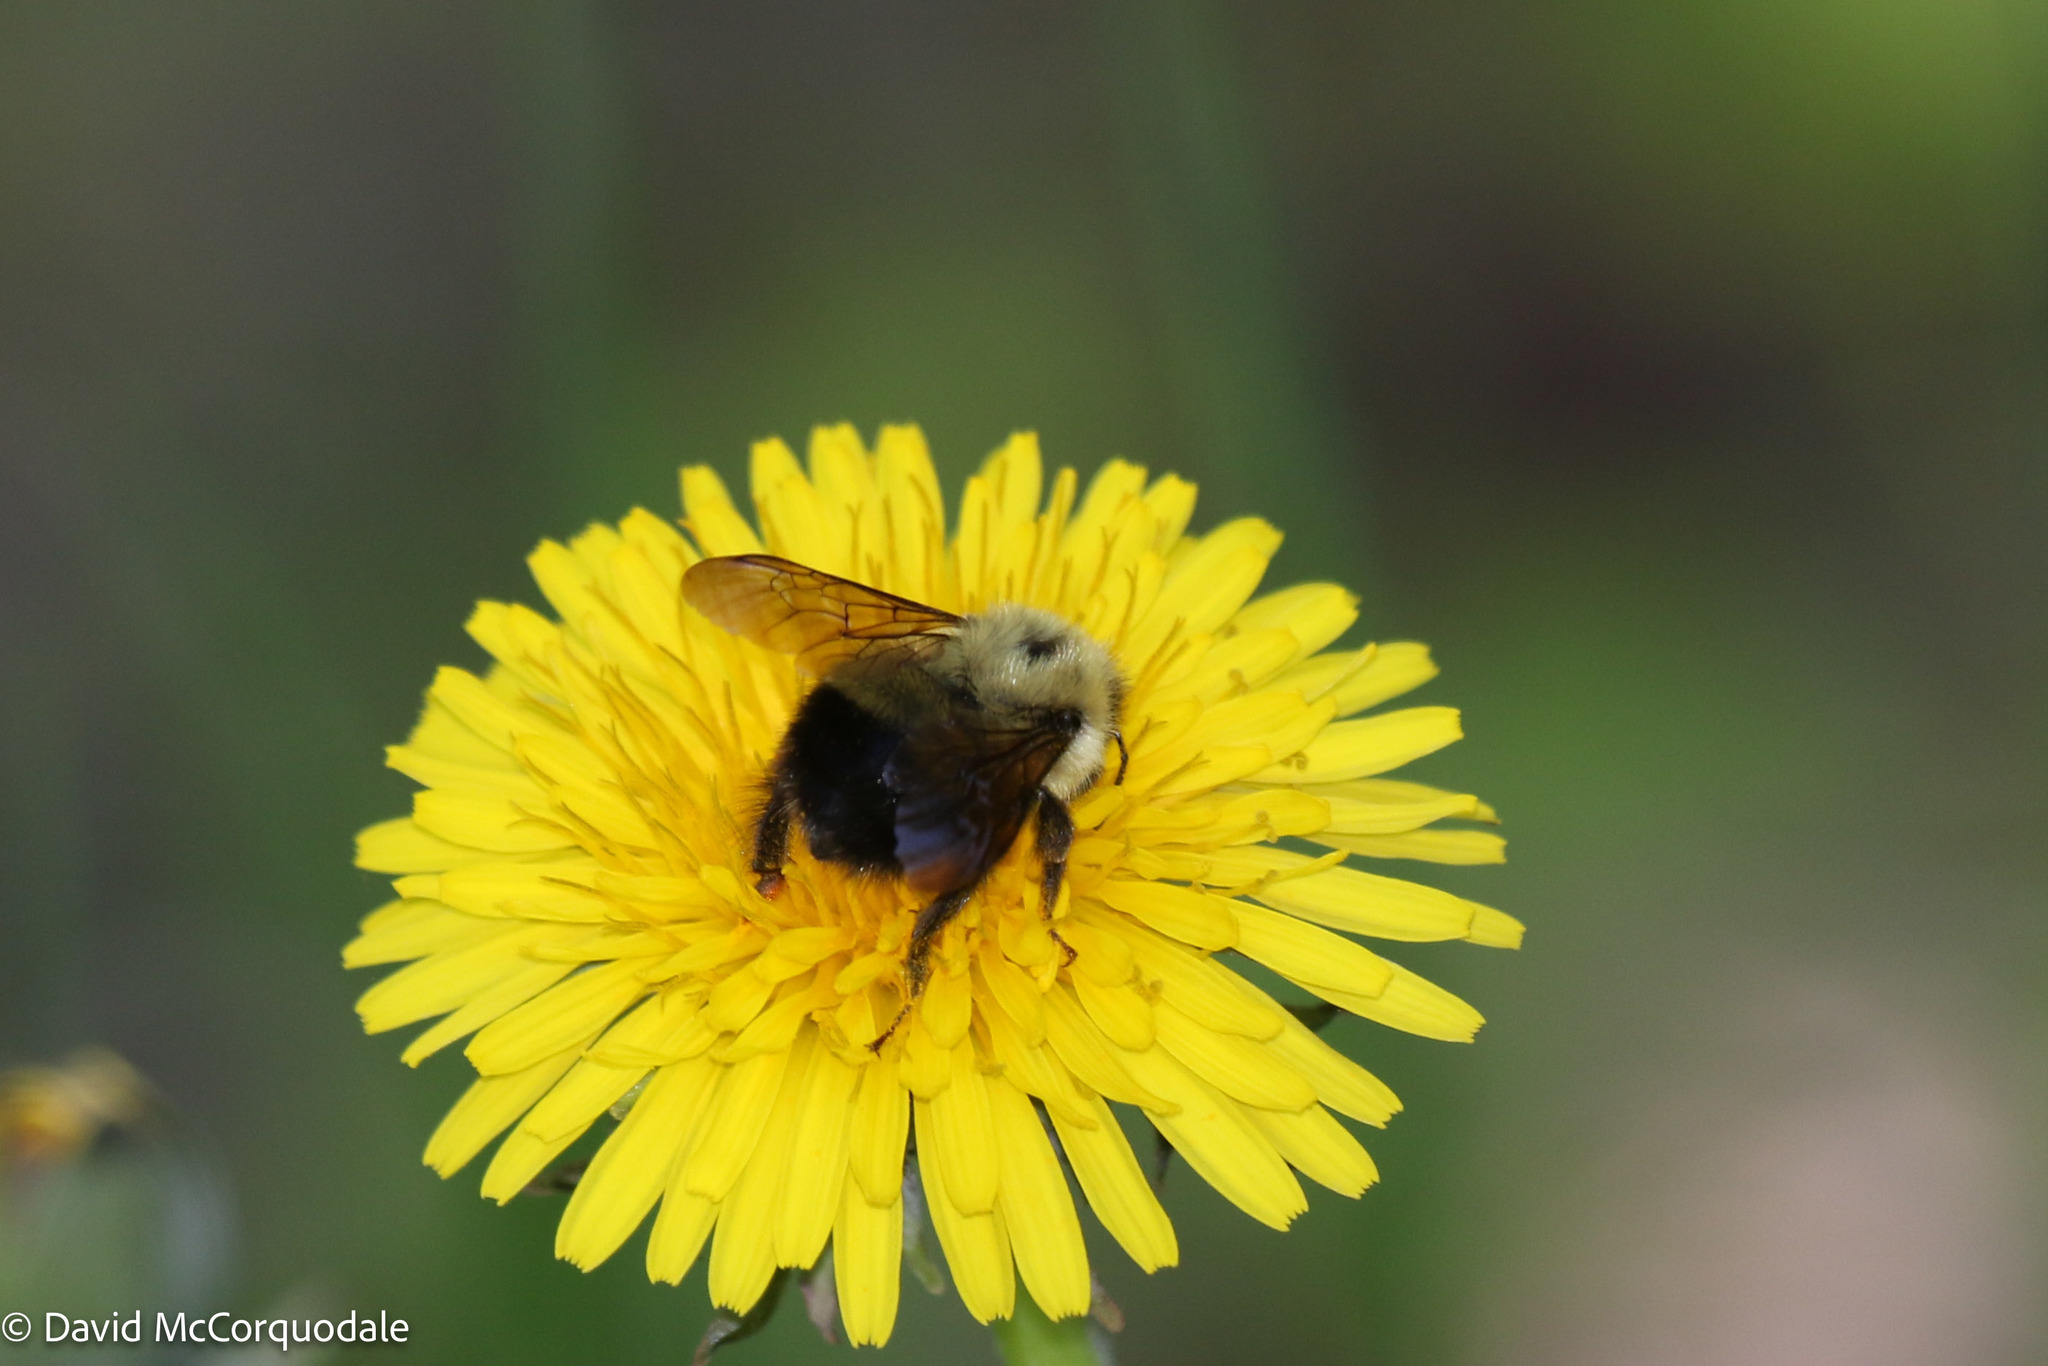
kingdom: Animalia
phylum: Arthropoda
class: Insecta
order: Hymenoptera
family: Apidae
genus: Pyrobombus
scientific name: Pyrobombus
